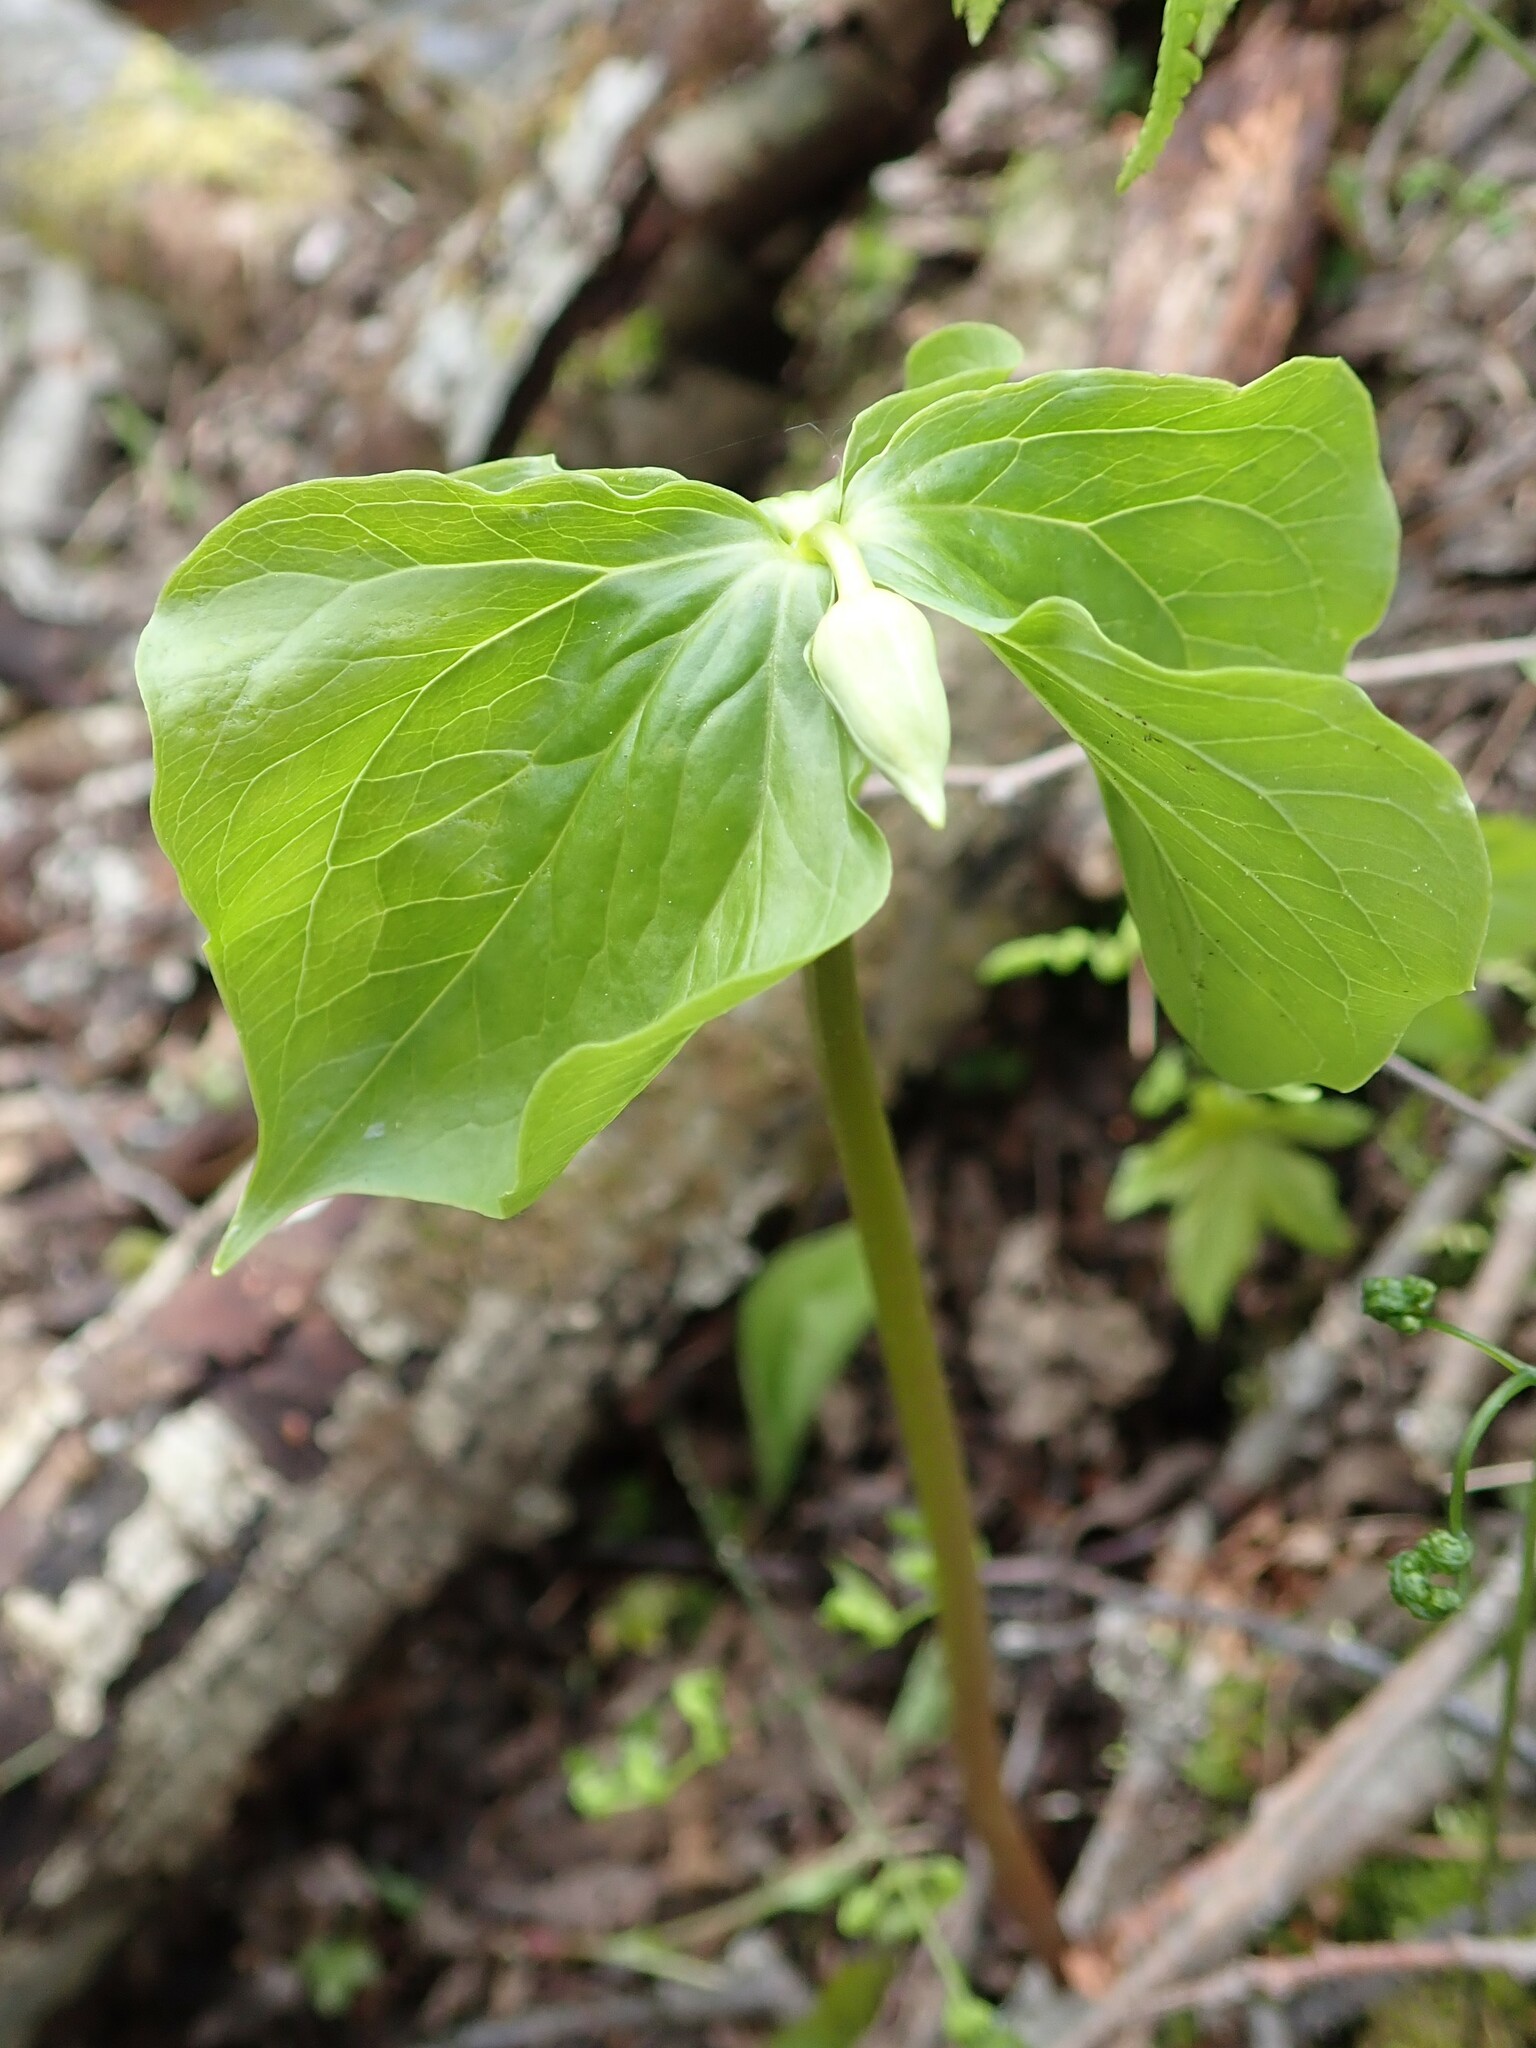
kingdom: Plantae
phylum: Tracheophyta
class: Liliopsida
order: Liliales
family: Melanthiaceae
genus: Trillium
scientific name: Trillium cernuum
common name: Nodding trillium
